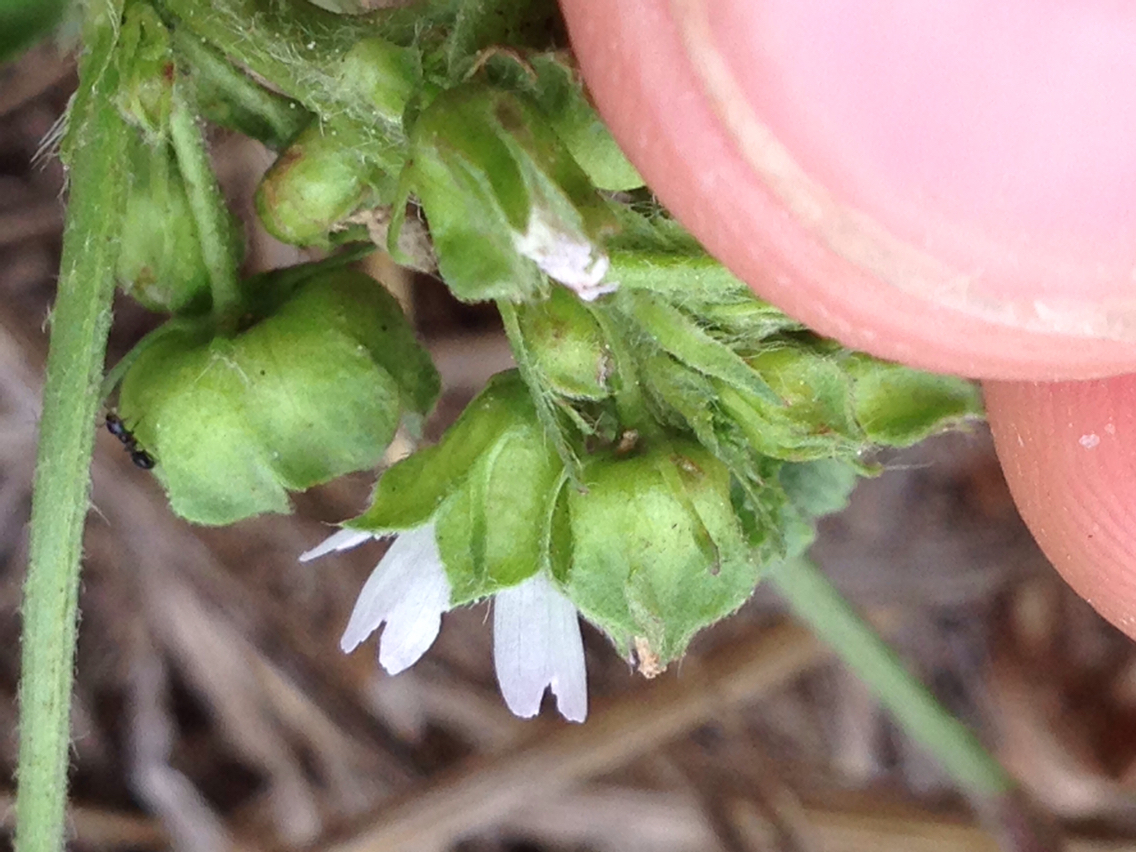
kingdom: Plantae
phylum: Tracheophyta
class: Magnoliopsida
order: Malvales
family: Malvaceae
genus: Malva
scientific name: Malva parviflora
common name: Least mallow
